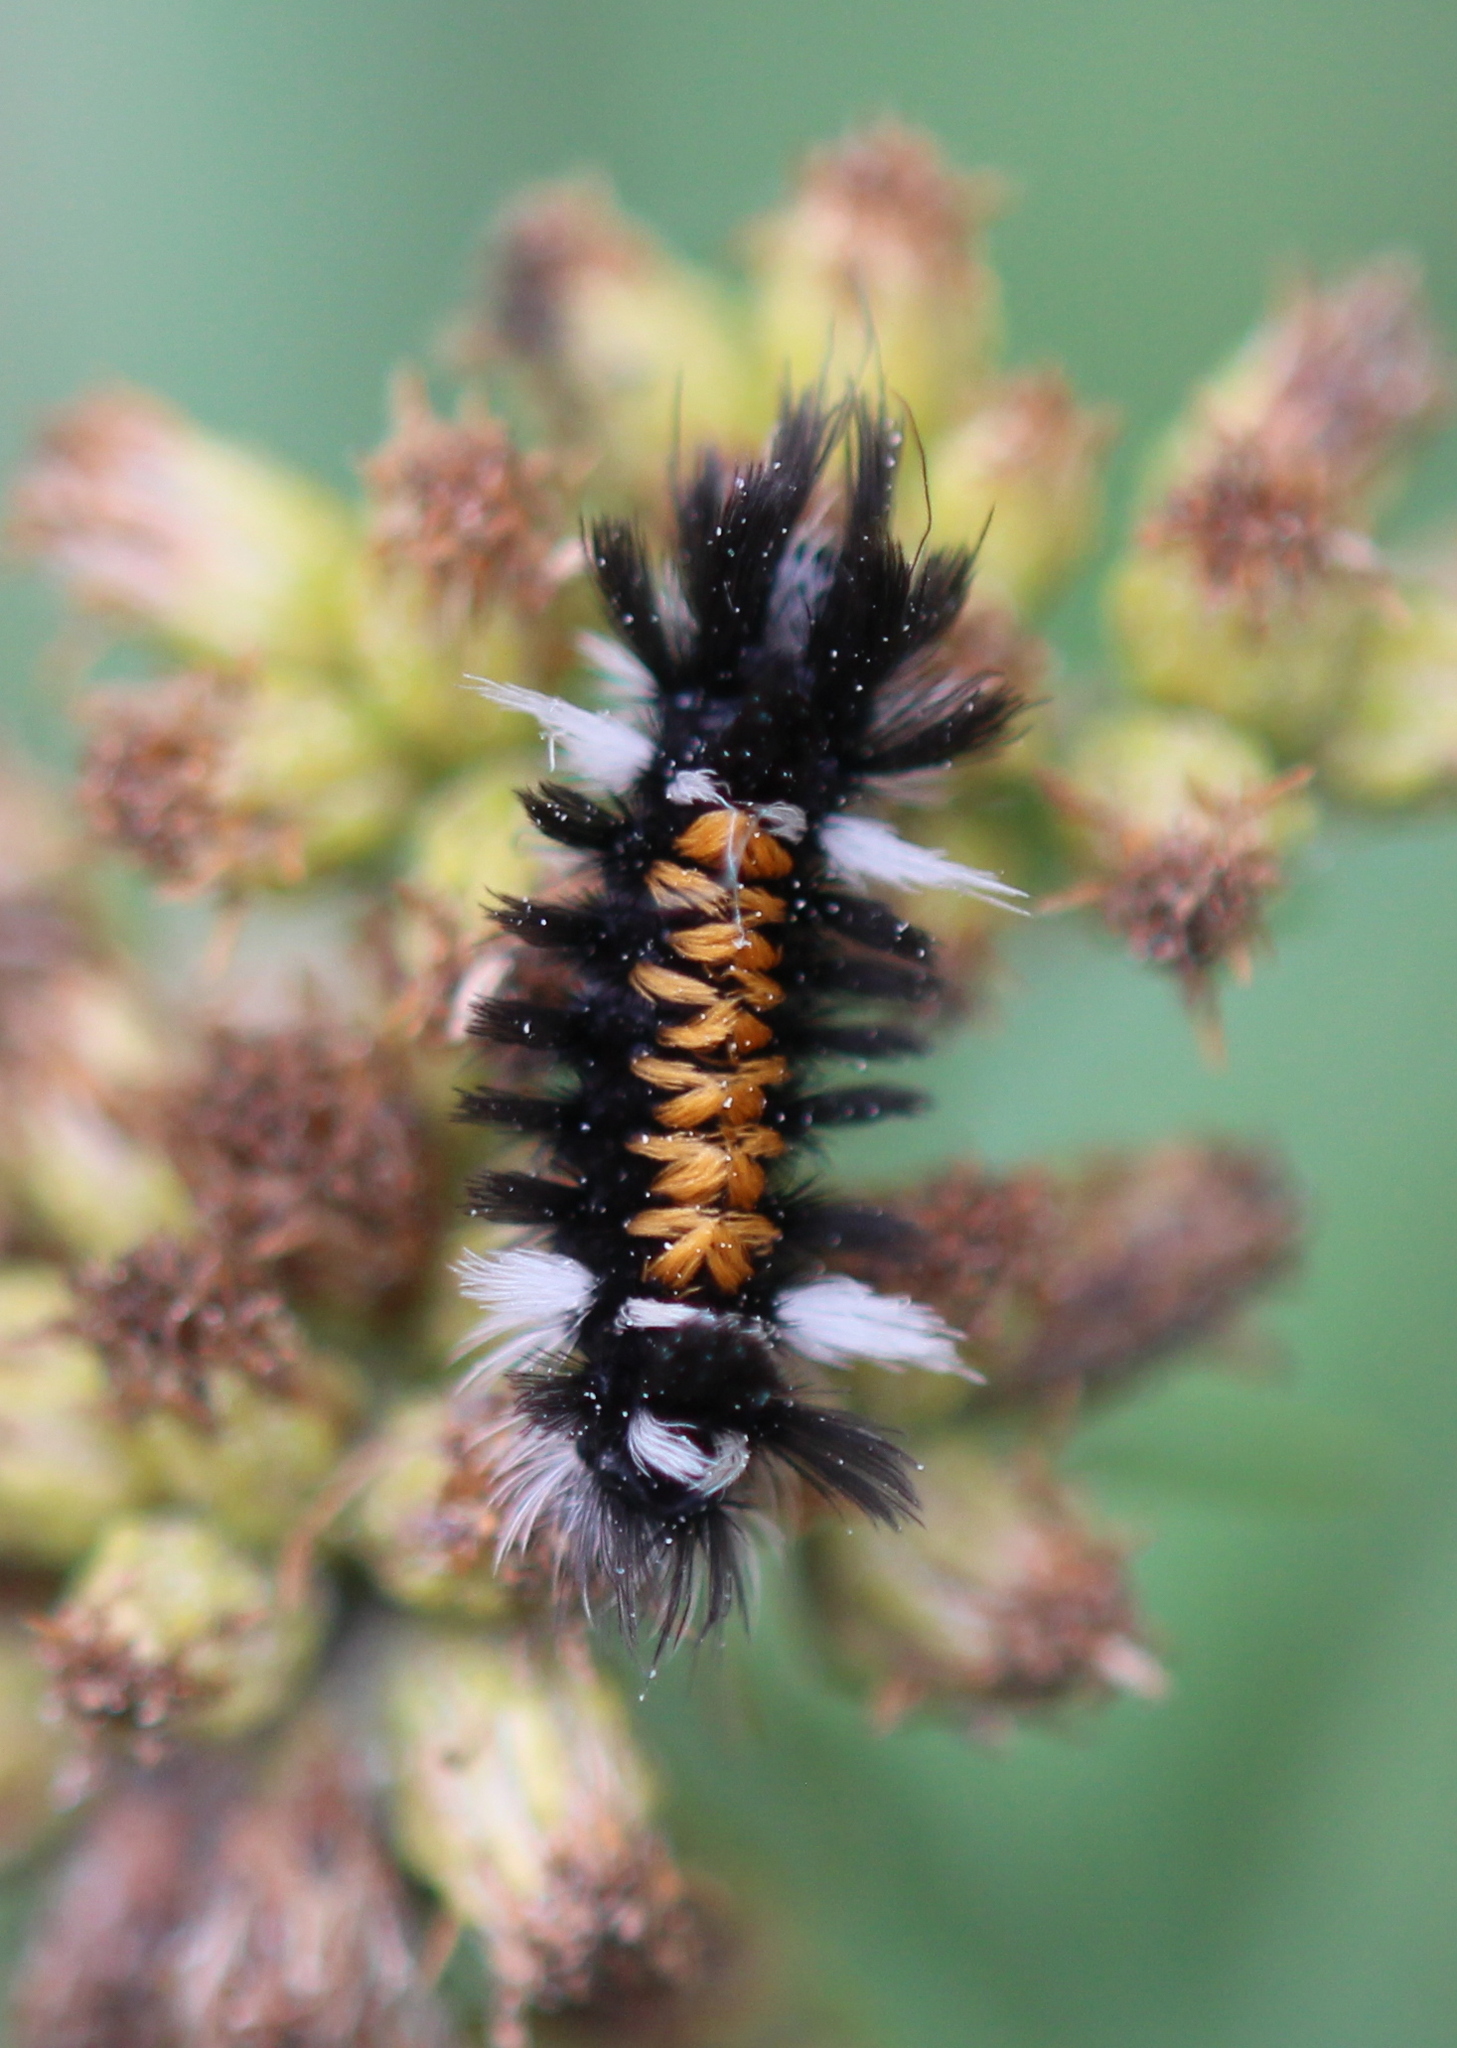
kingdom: Animalia
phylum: Arthropoda
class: Insecta
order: Lepidoptera
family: Erebidae
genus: Euchaetes
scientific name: Euchaetes egle
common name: Milkweed tussock moth
